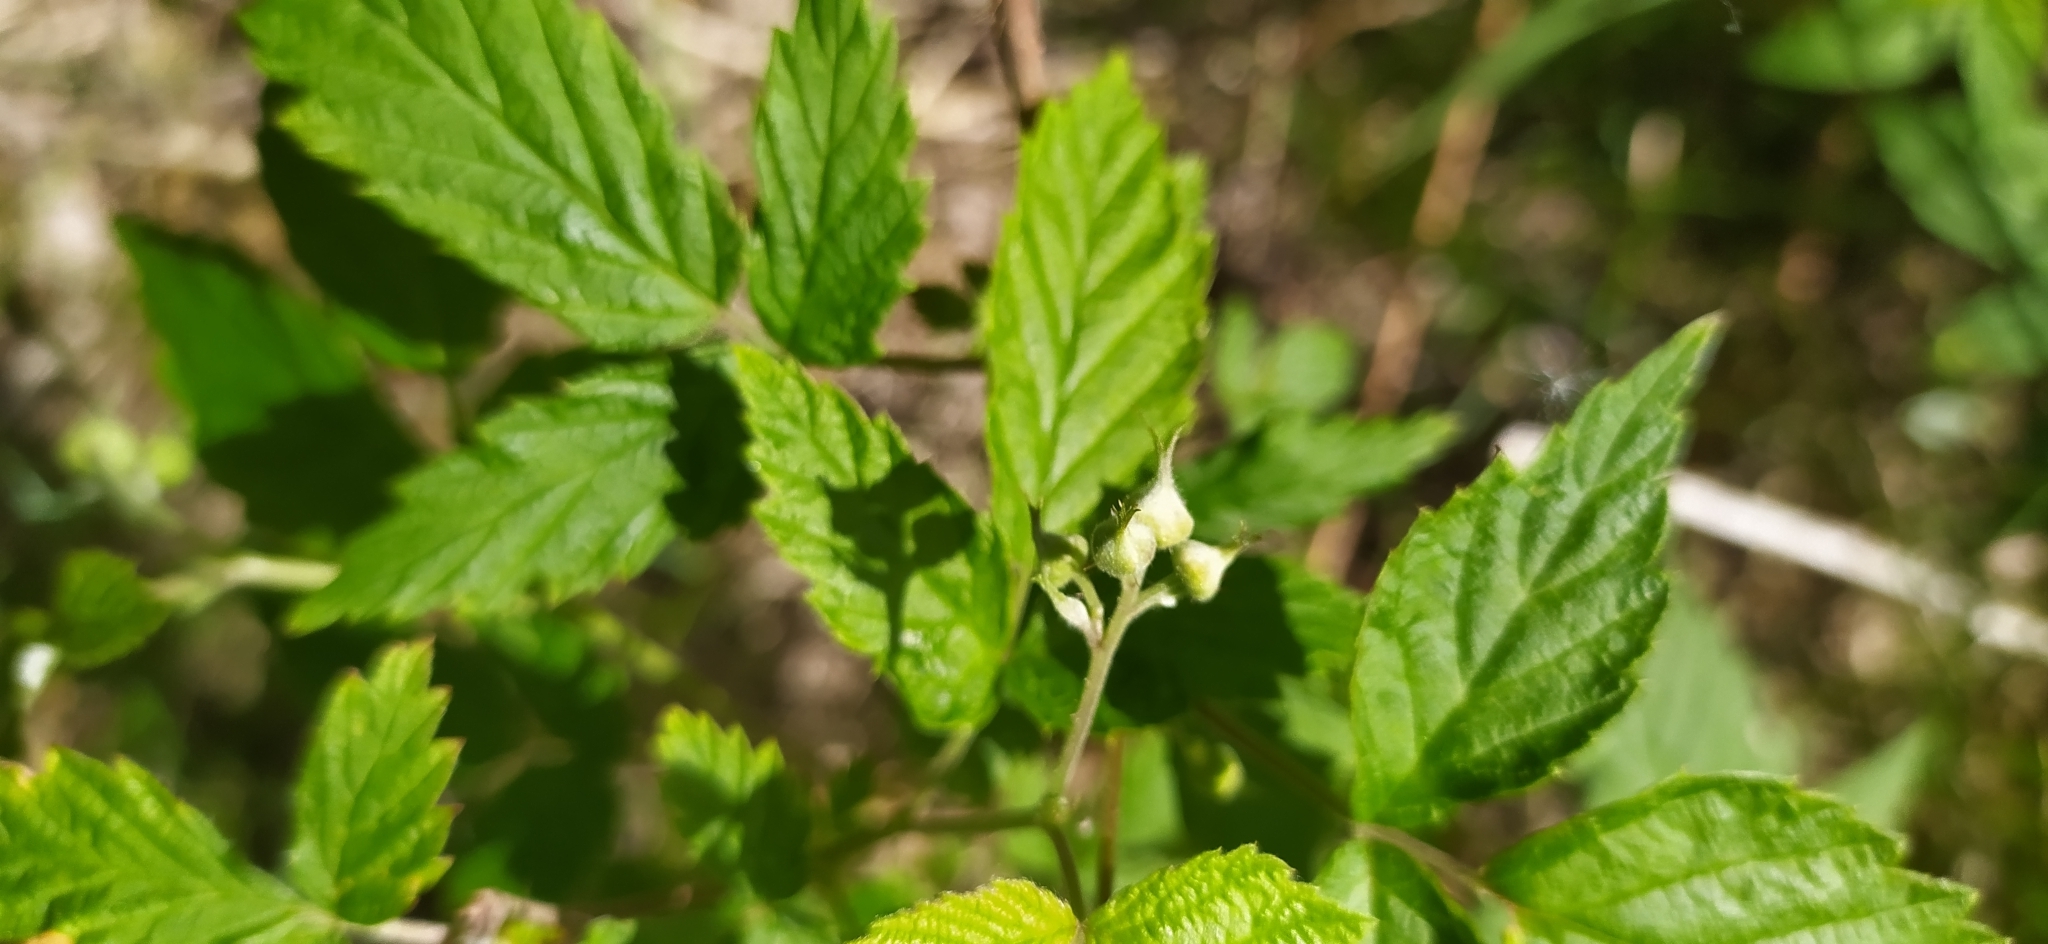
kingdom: Plantae
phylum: Tracheophyta
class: Magnoliopsida
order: Rosales
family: Rosaceae
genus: Rubus
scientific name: Rubus idaeus
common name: Raspberry
